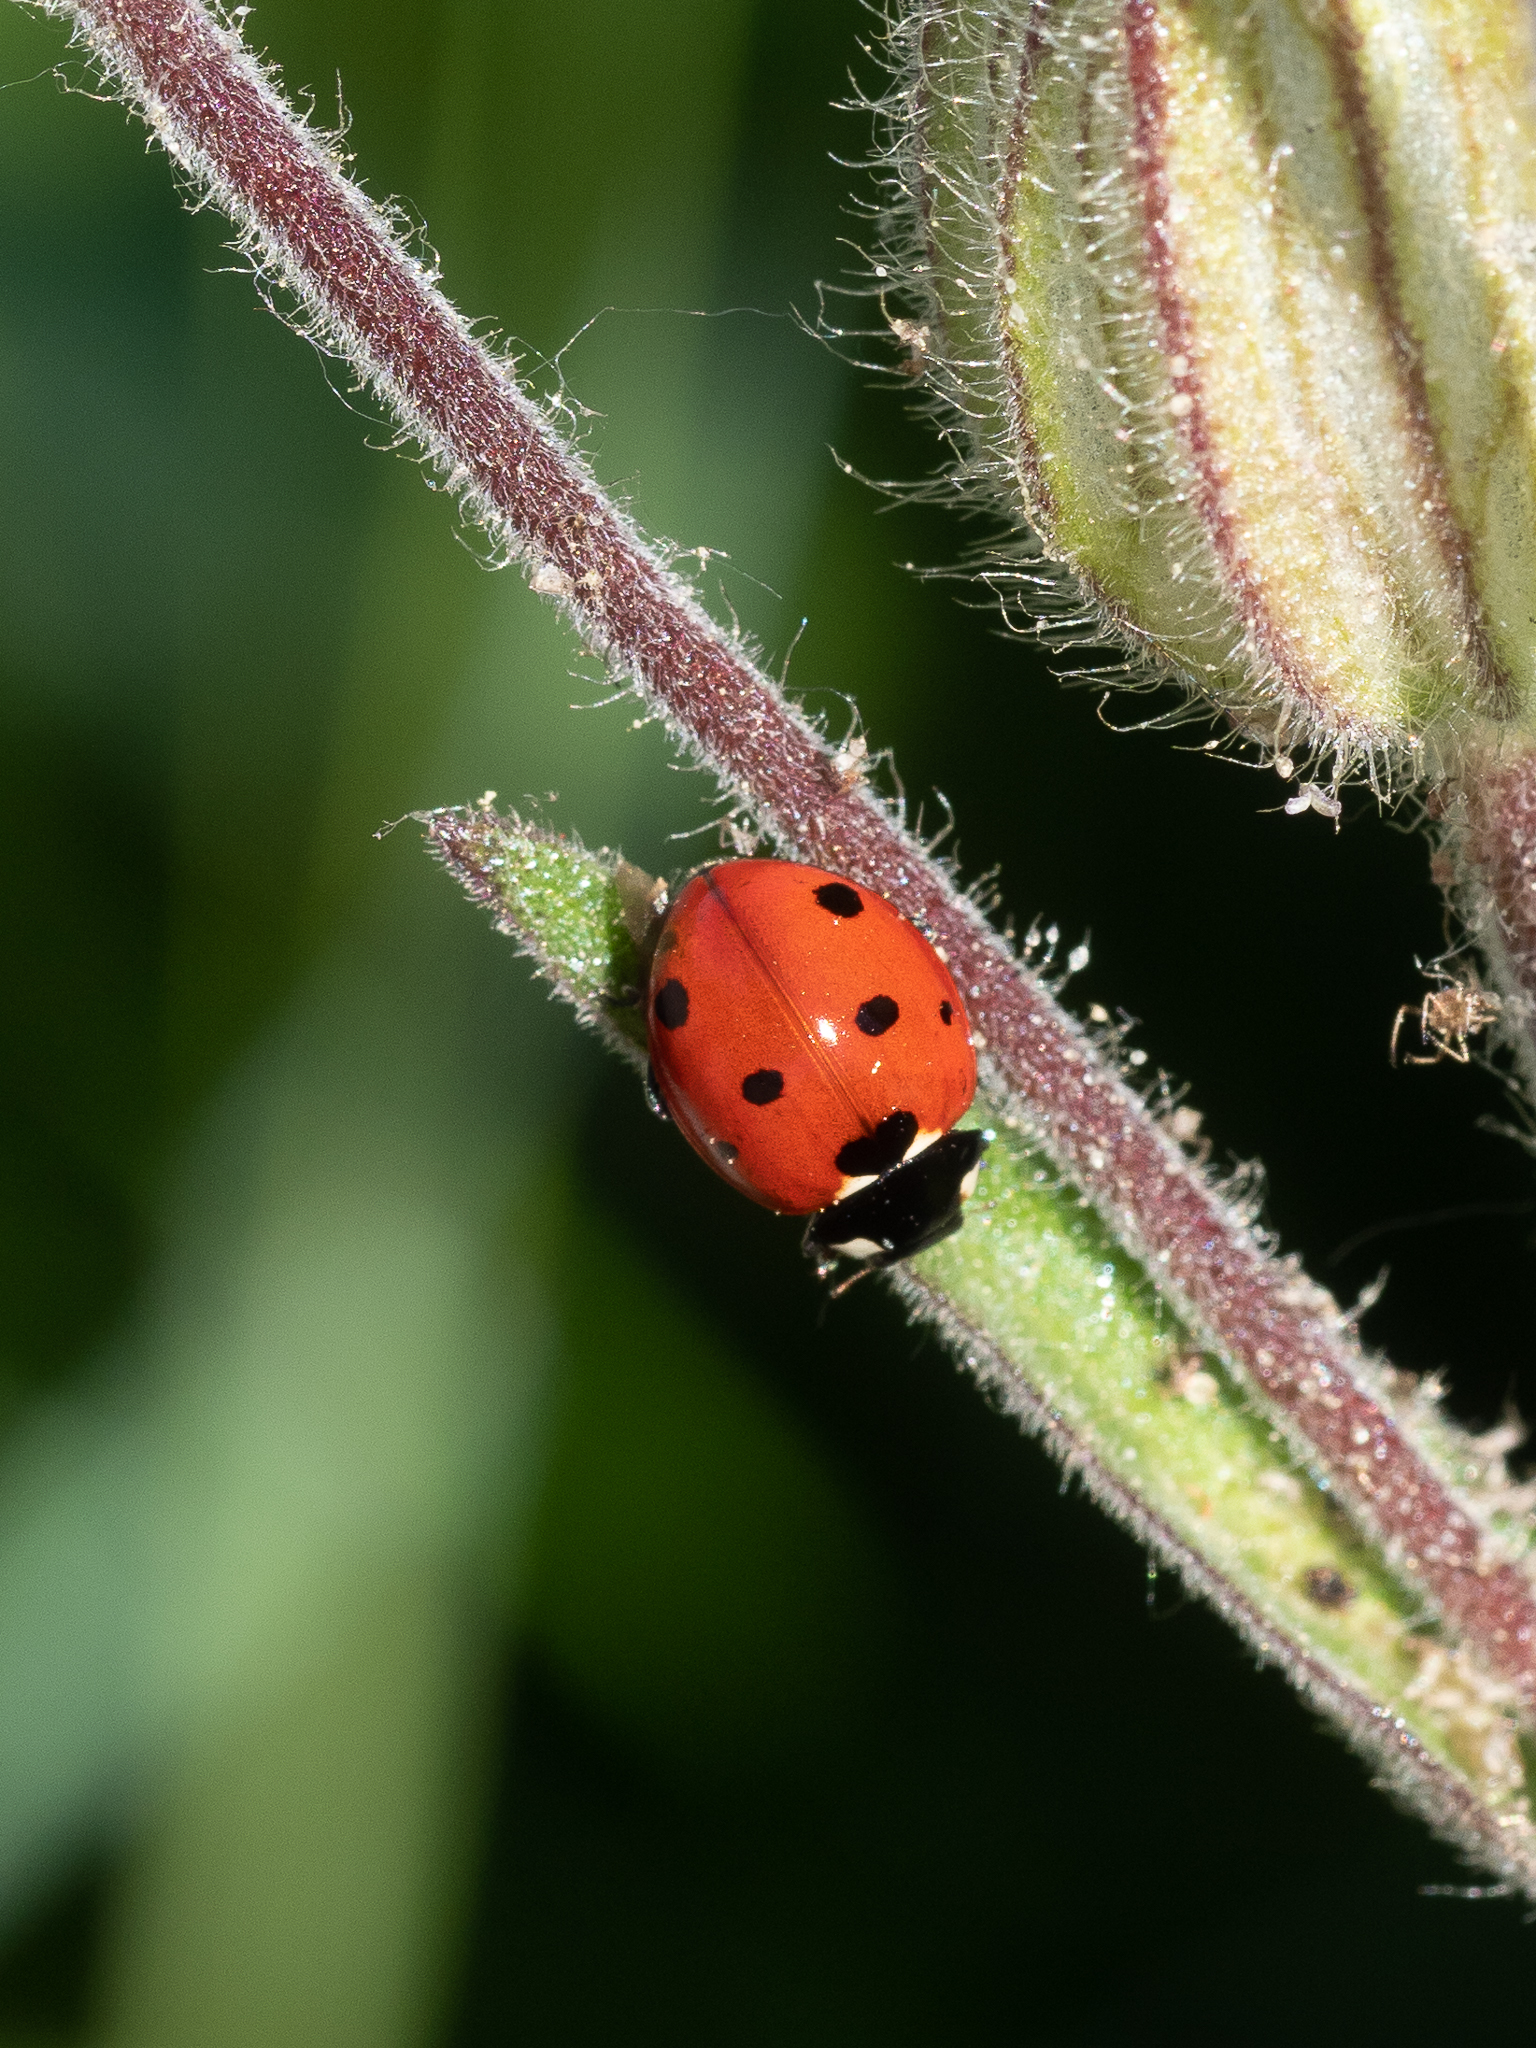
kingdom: Animalia
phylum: Arthropoda
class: Insecta
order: Coleoptera
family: Coccinellidae
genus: Coccinella
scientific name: Coccinella septempunctata
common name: Sevenspotted lady beetle
